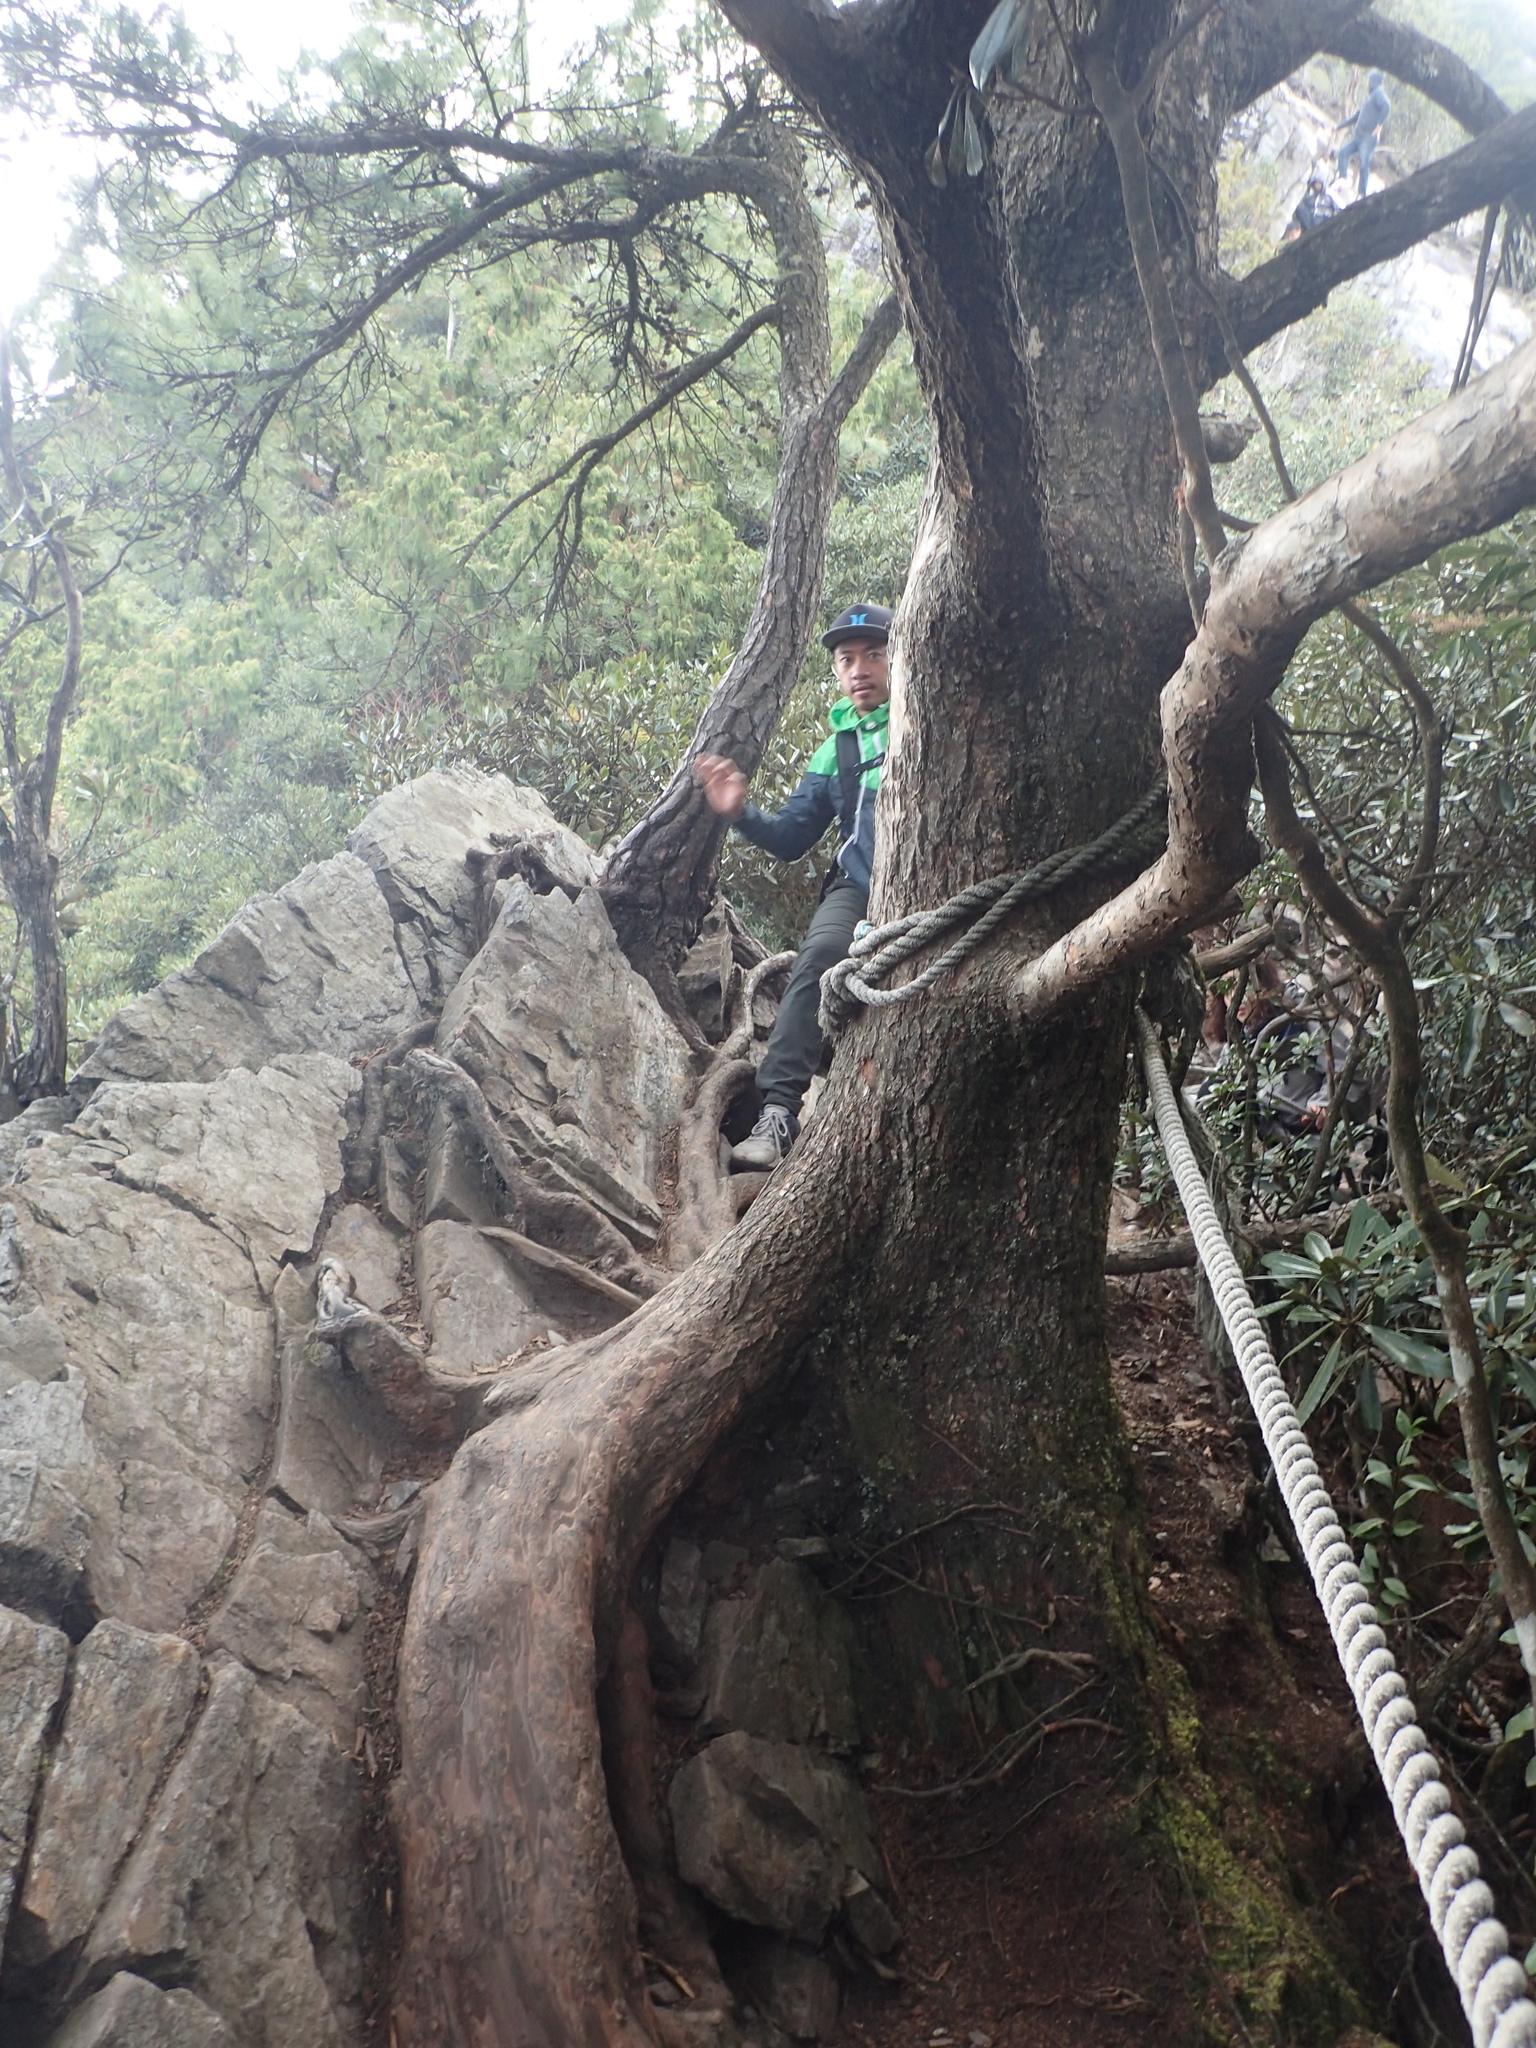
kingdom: Plantae
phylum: Tracheophyta
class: Pinopsida
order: Pinales
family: Pinaceae
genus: Tsuga
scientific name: Tsuga chinensis
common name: Chinese hemlock
